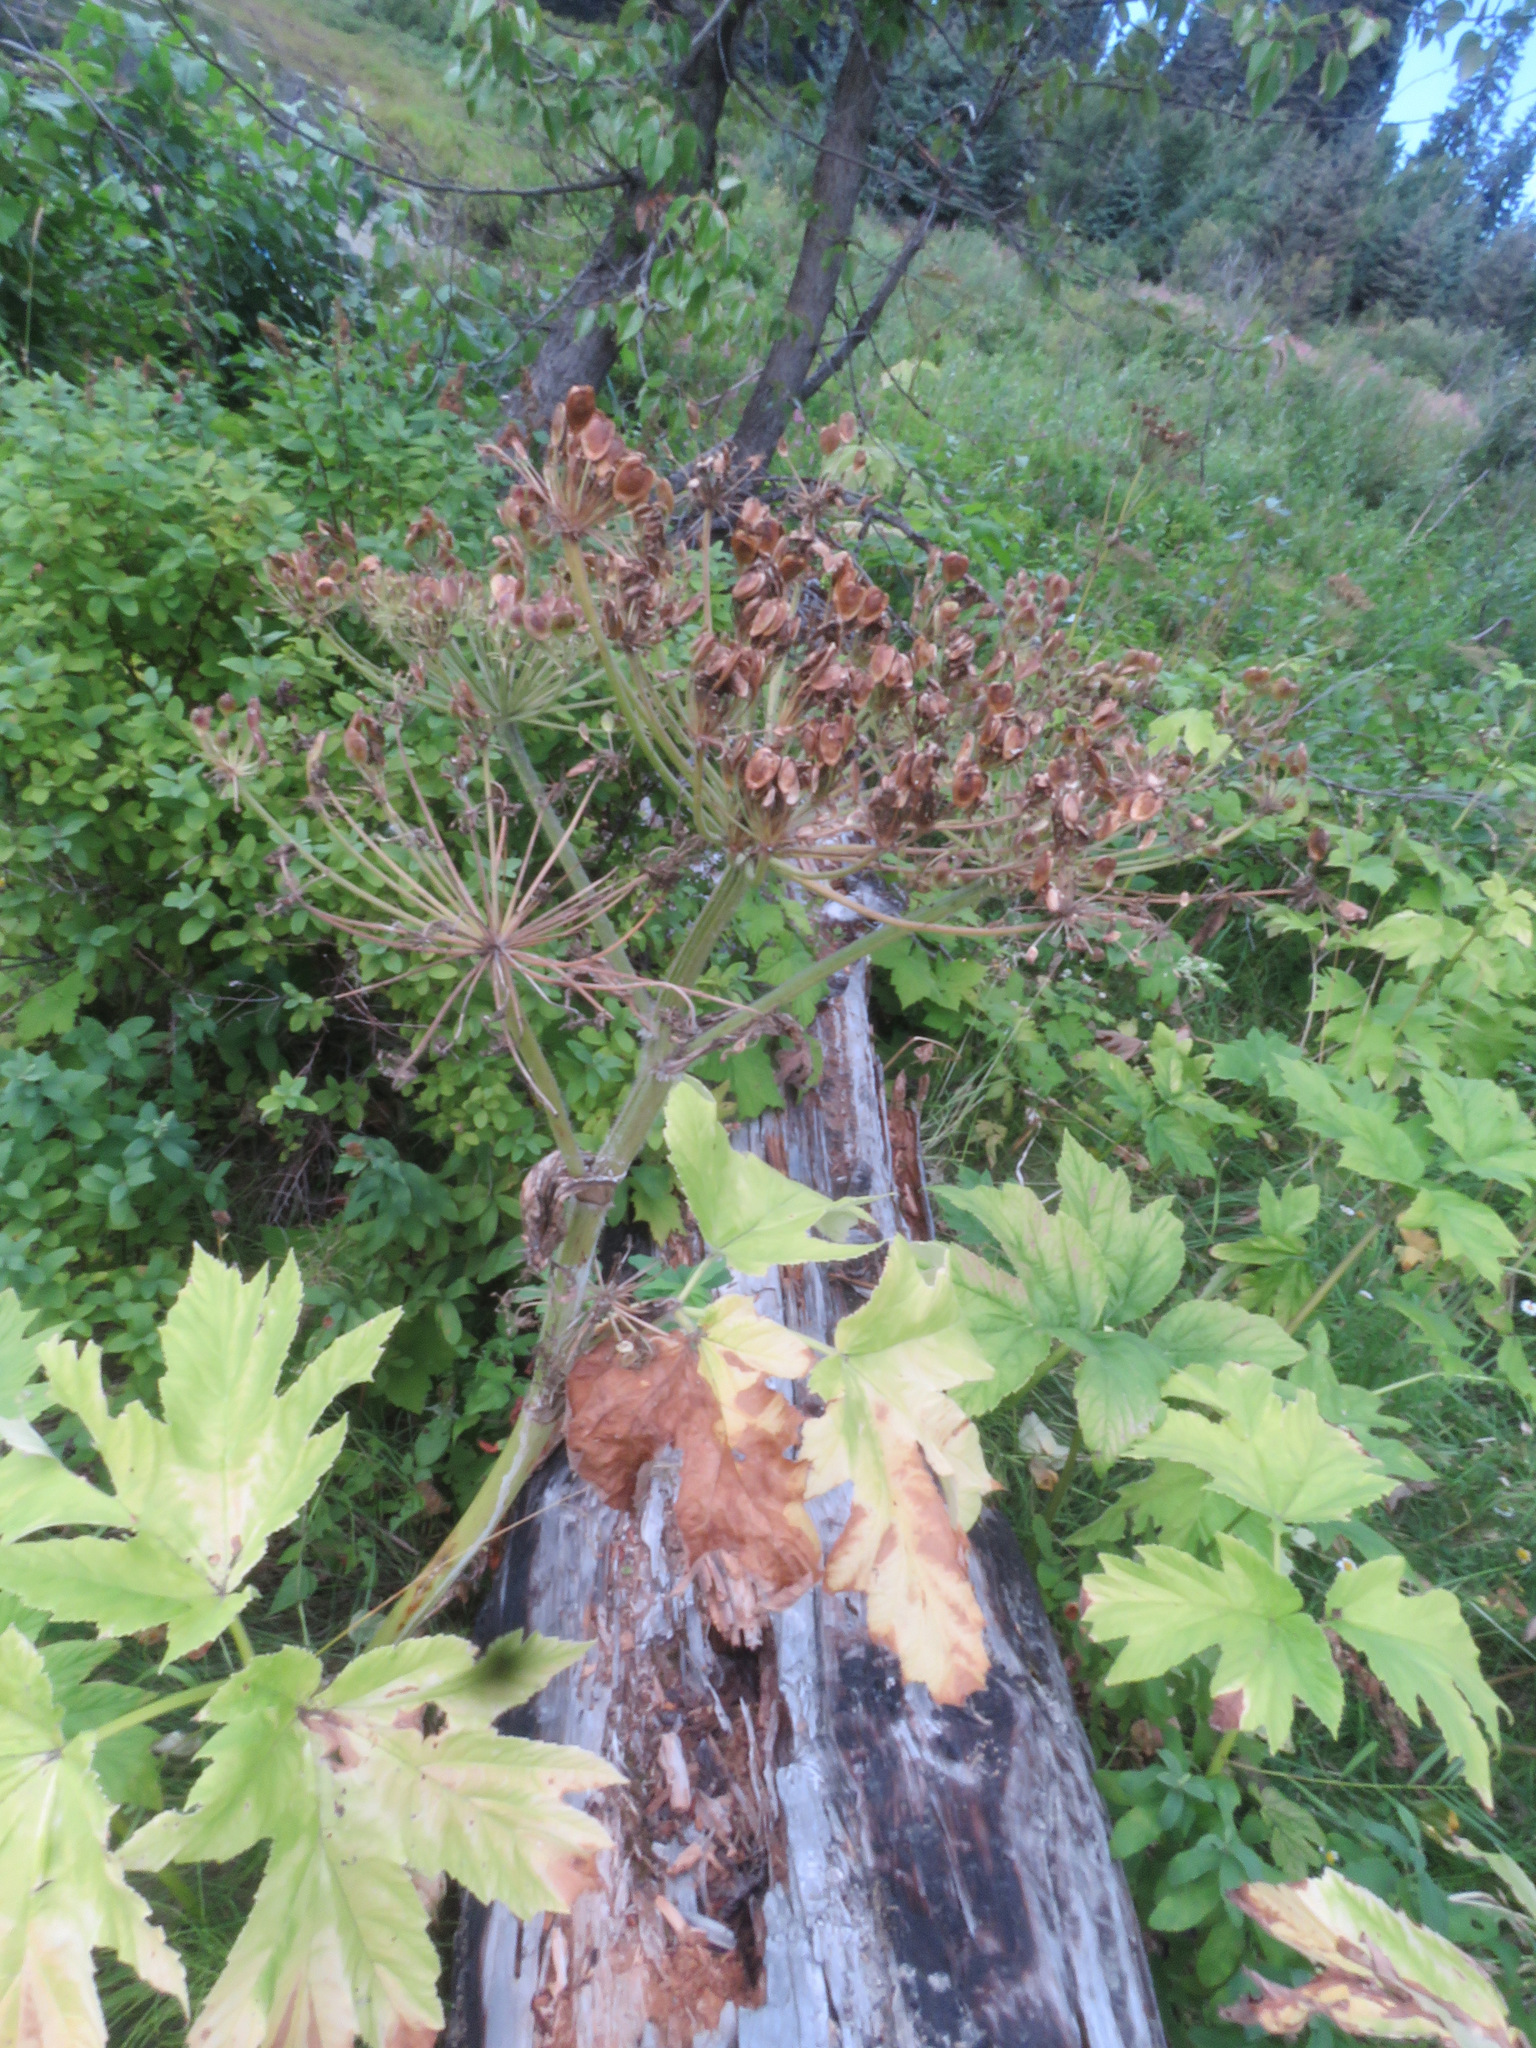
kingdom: Plantae
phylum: Tracheophyta
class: Magnoliopsida
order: Apiales
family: Apiaceae
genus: Heracleum
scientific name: Heracleum maximum
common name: American cow parsnip
